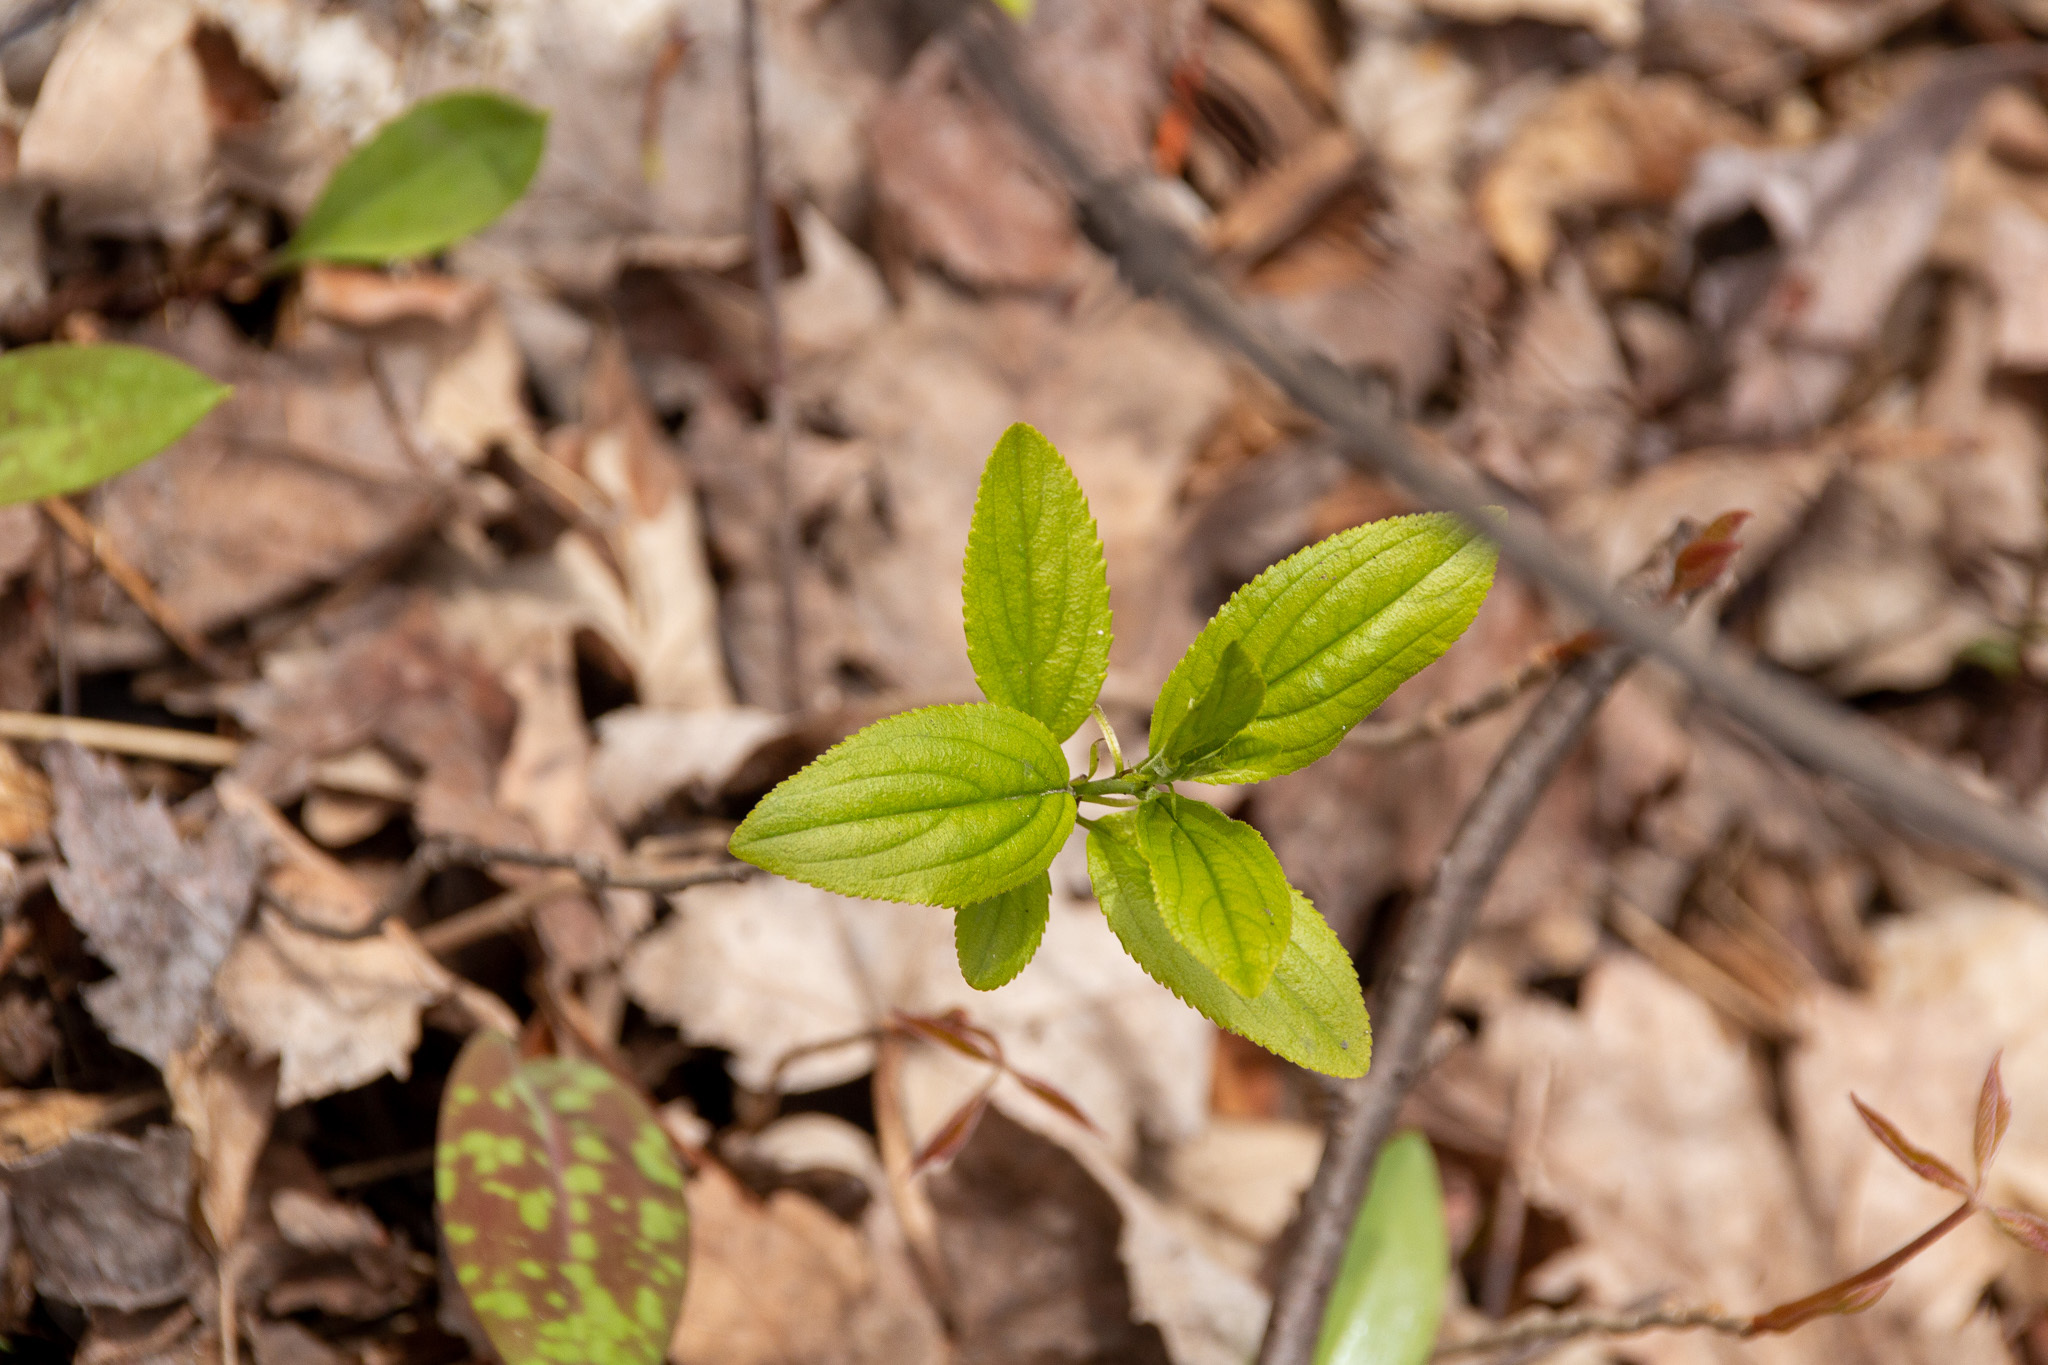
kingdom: Plantae
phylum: Tracheophyta
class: Magnoliopsida
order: Rosales
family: Rhamnaceae
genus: Rhamnus
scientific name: Rhamnus cathartica
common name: Common buckthorn
